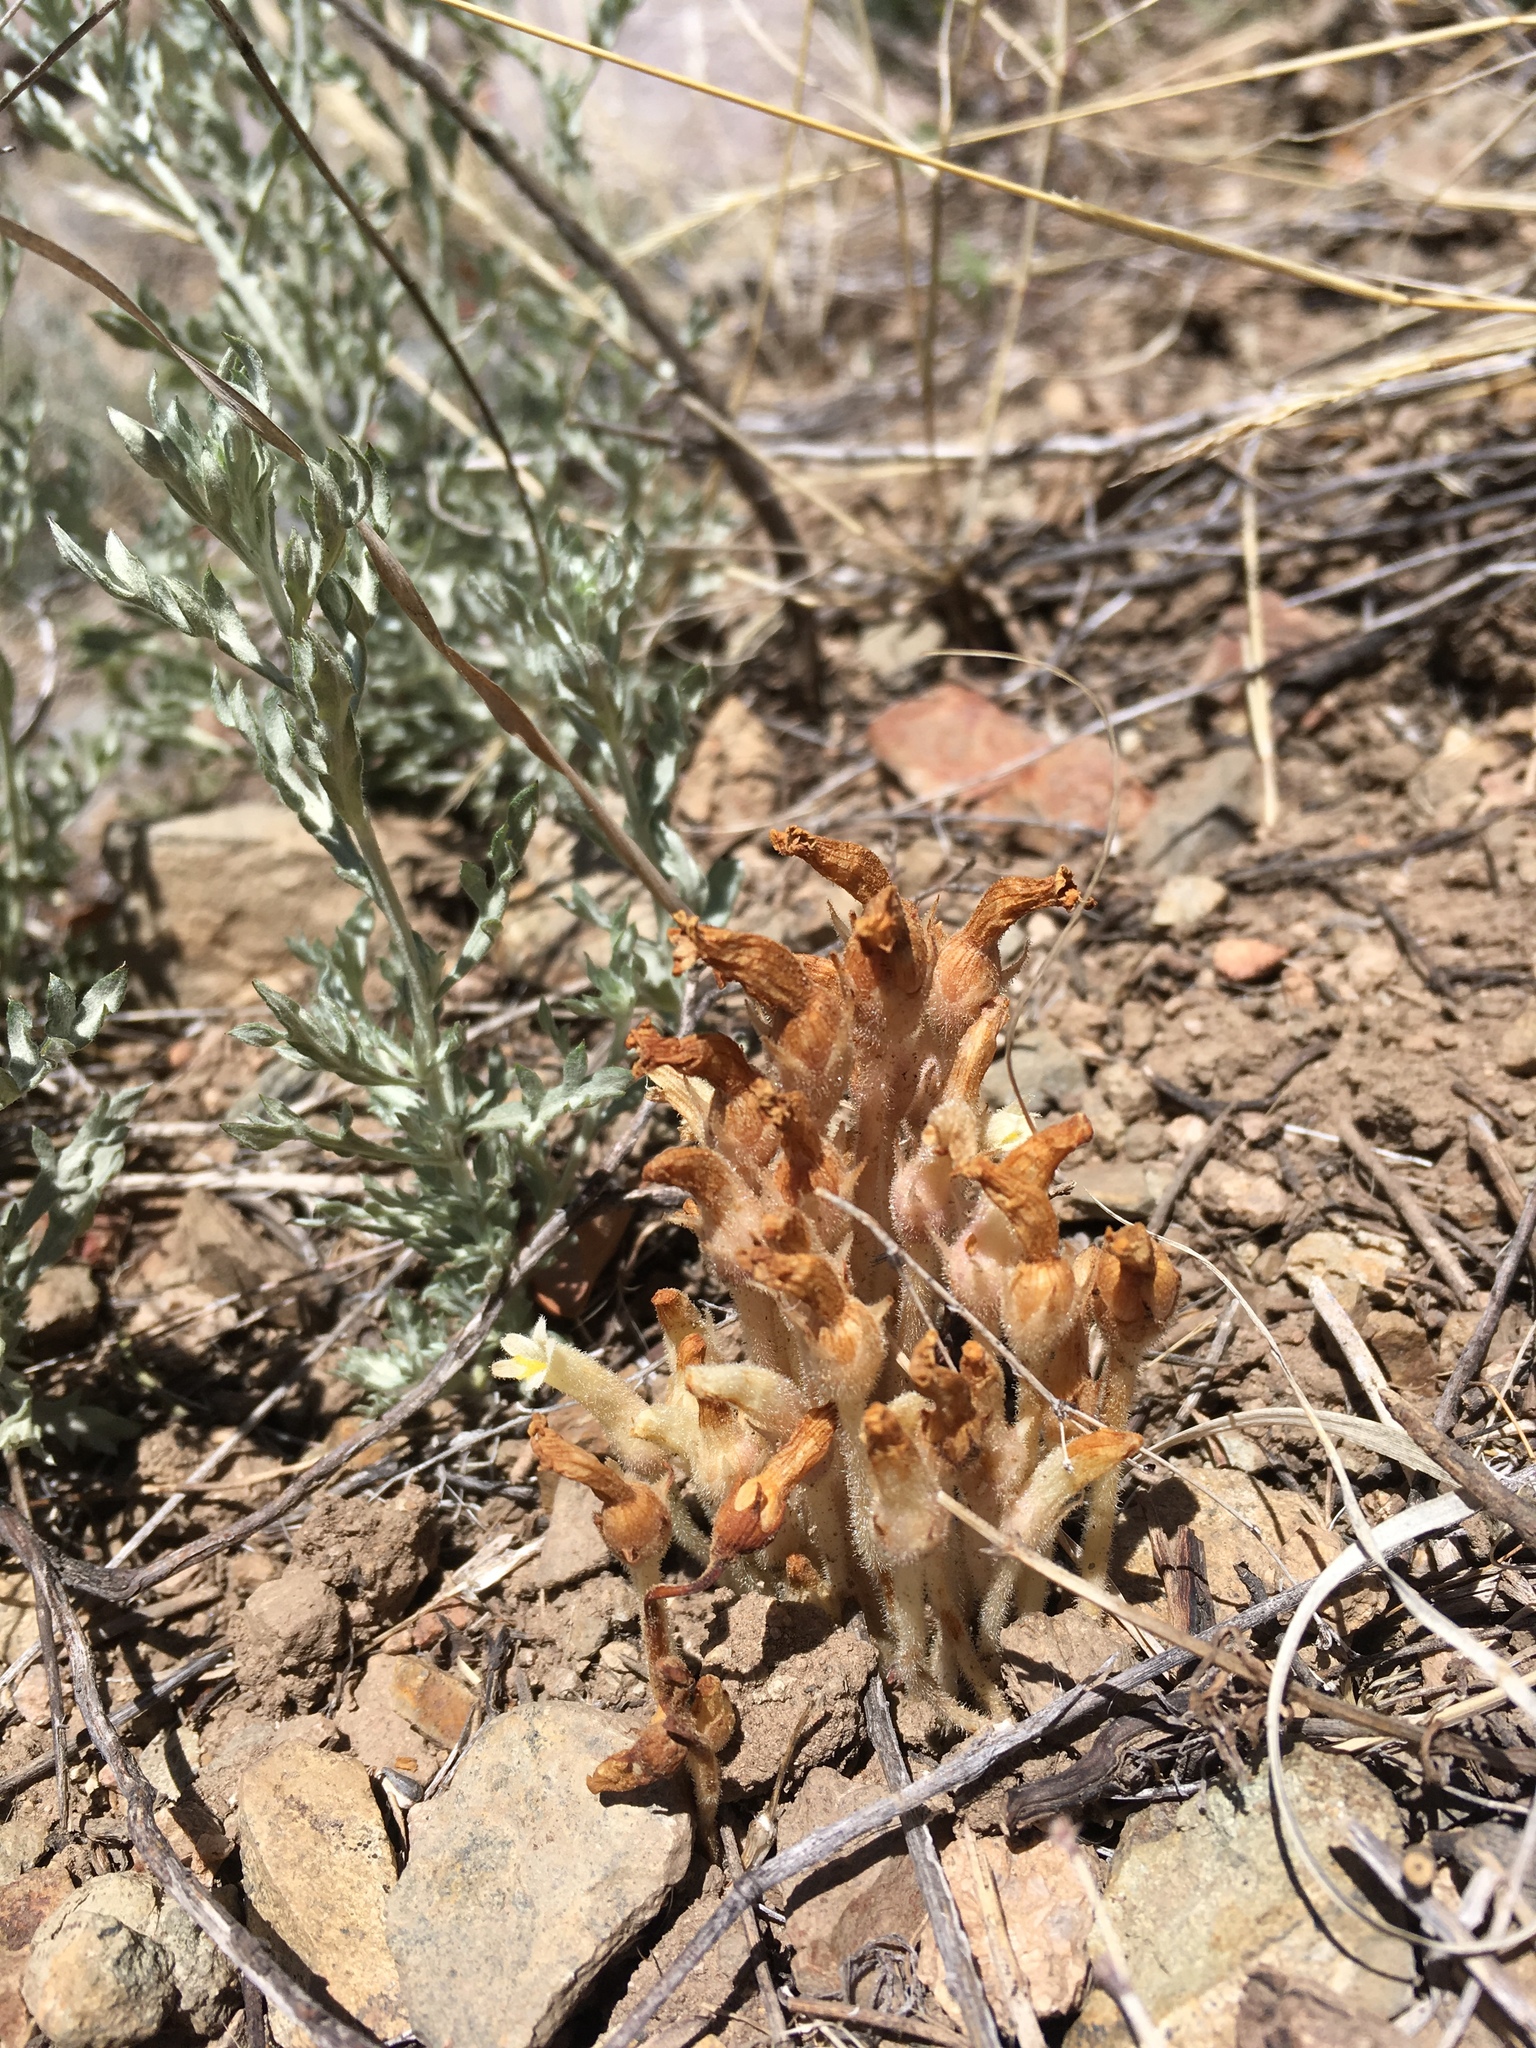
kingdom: Plantae
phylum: Tracheophyta
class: Magnoliopsida
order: Lamiales
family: Orobanchaceae
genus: Aphyllon
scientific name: Aphyllon fasciculatum
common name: Clustered broomrape
